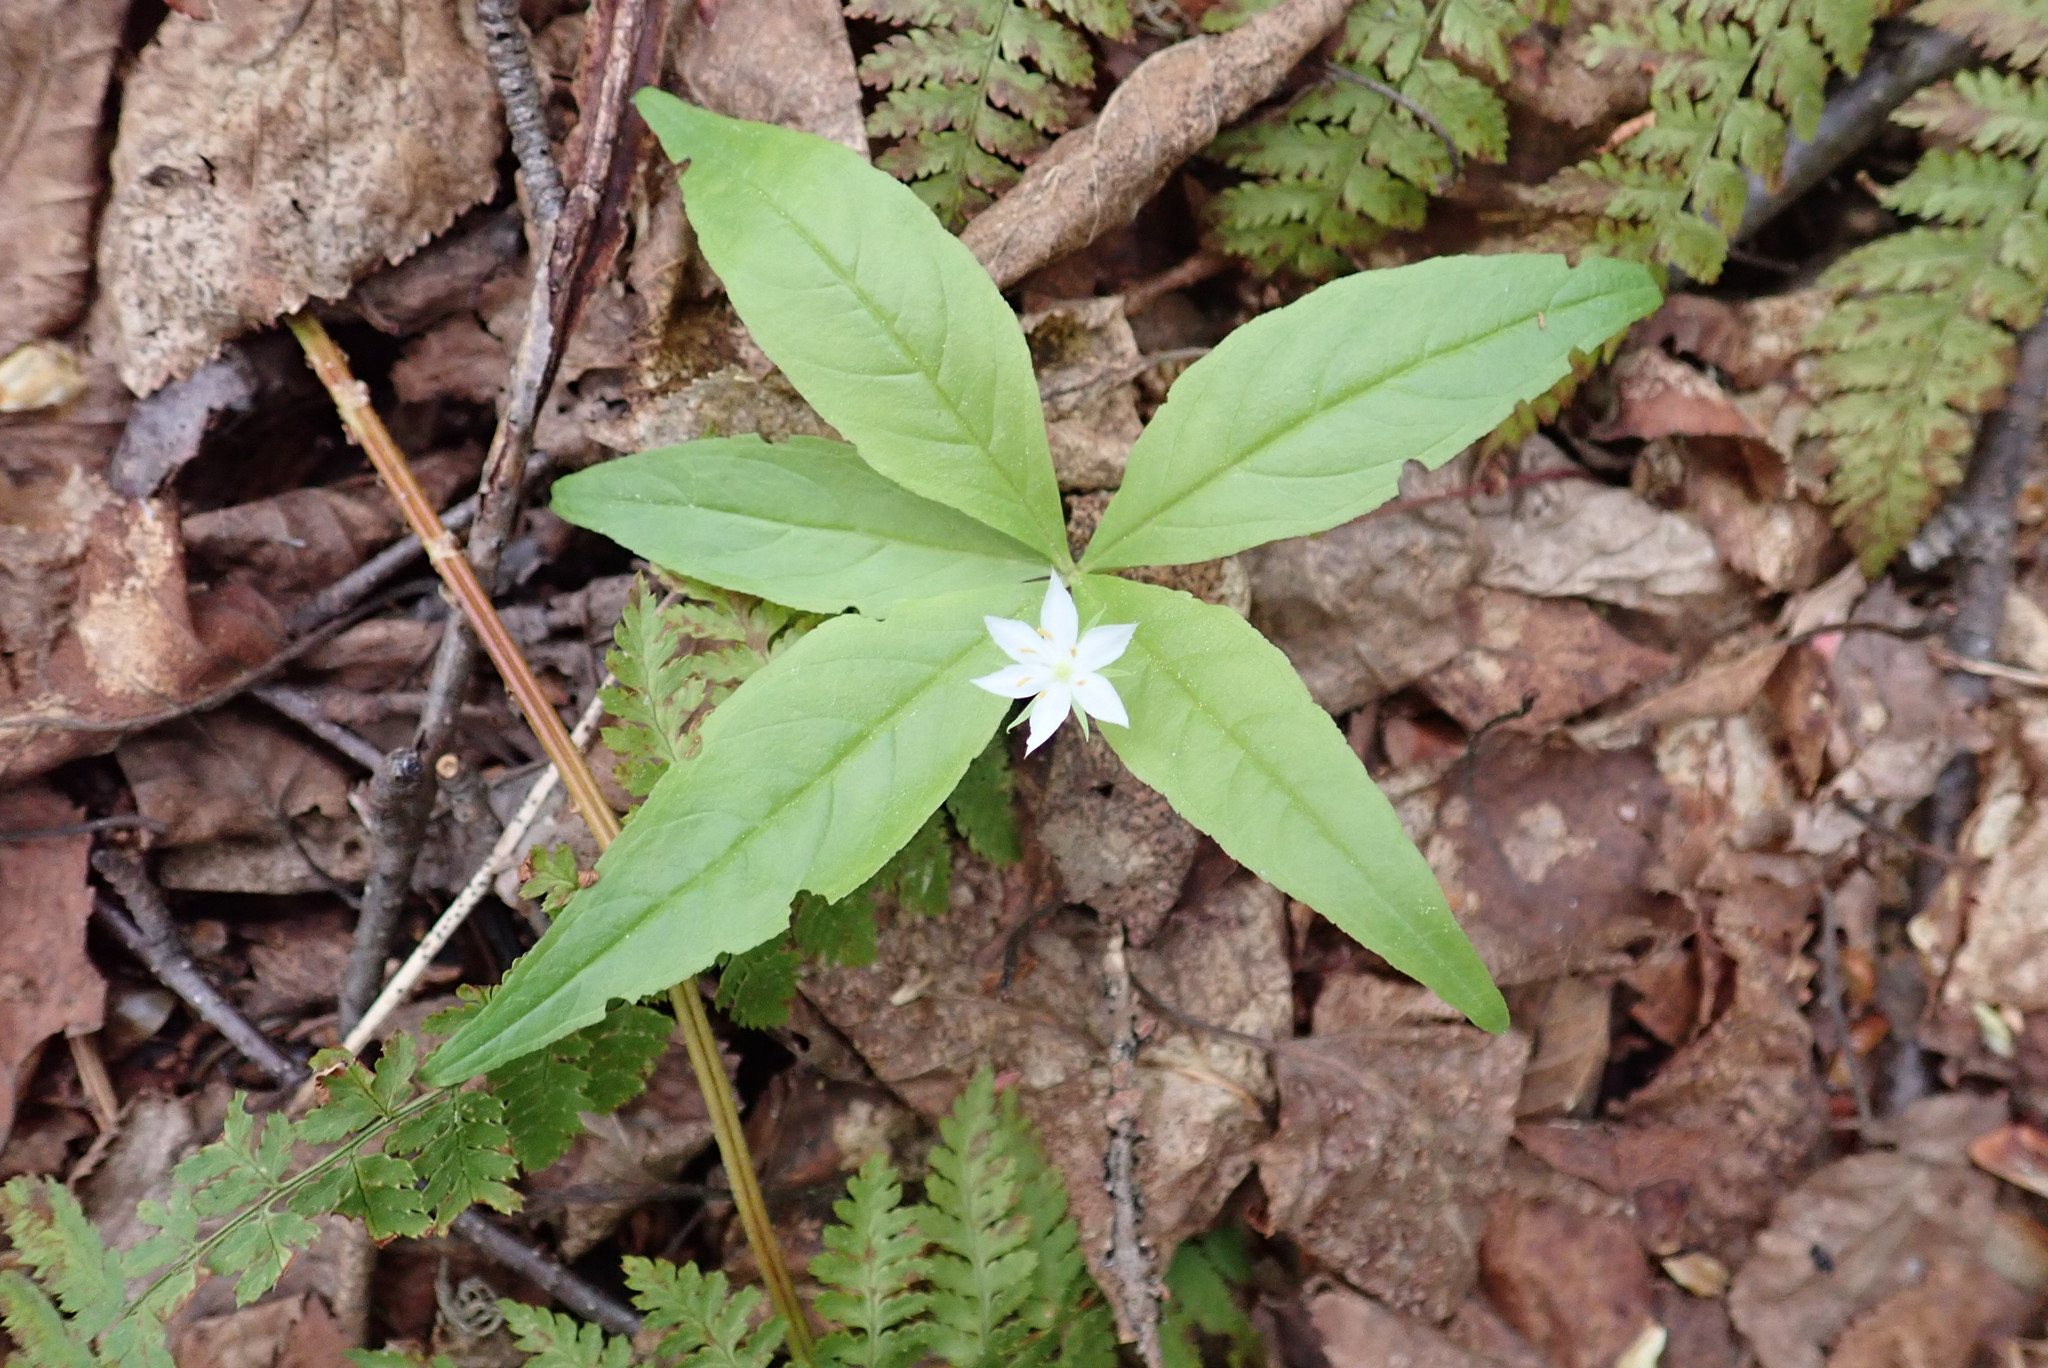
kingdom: Plantae
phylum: Tracheophyta
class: Magnoliopsida
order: Ericales
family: Primulaceae
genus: Lysimachia
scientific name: Lysimachia borealis
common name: American starflower
